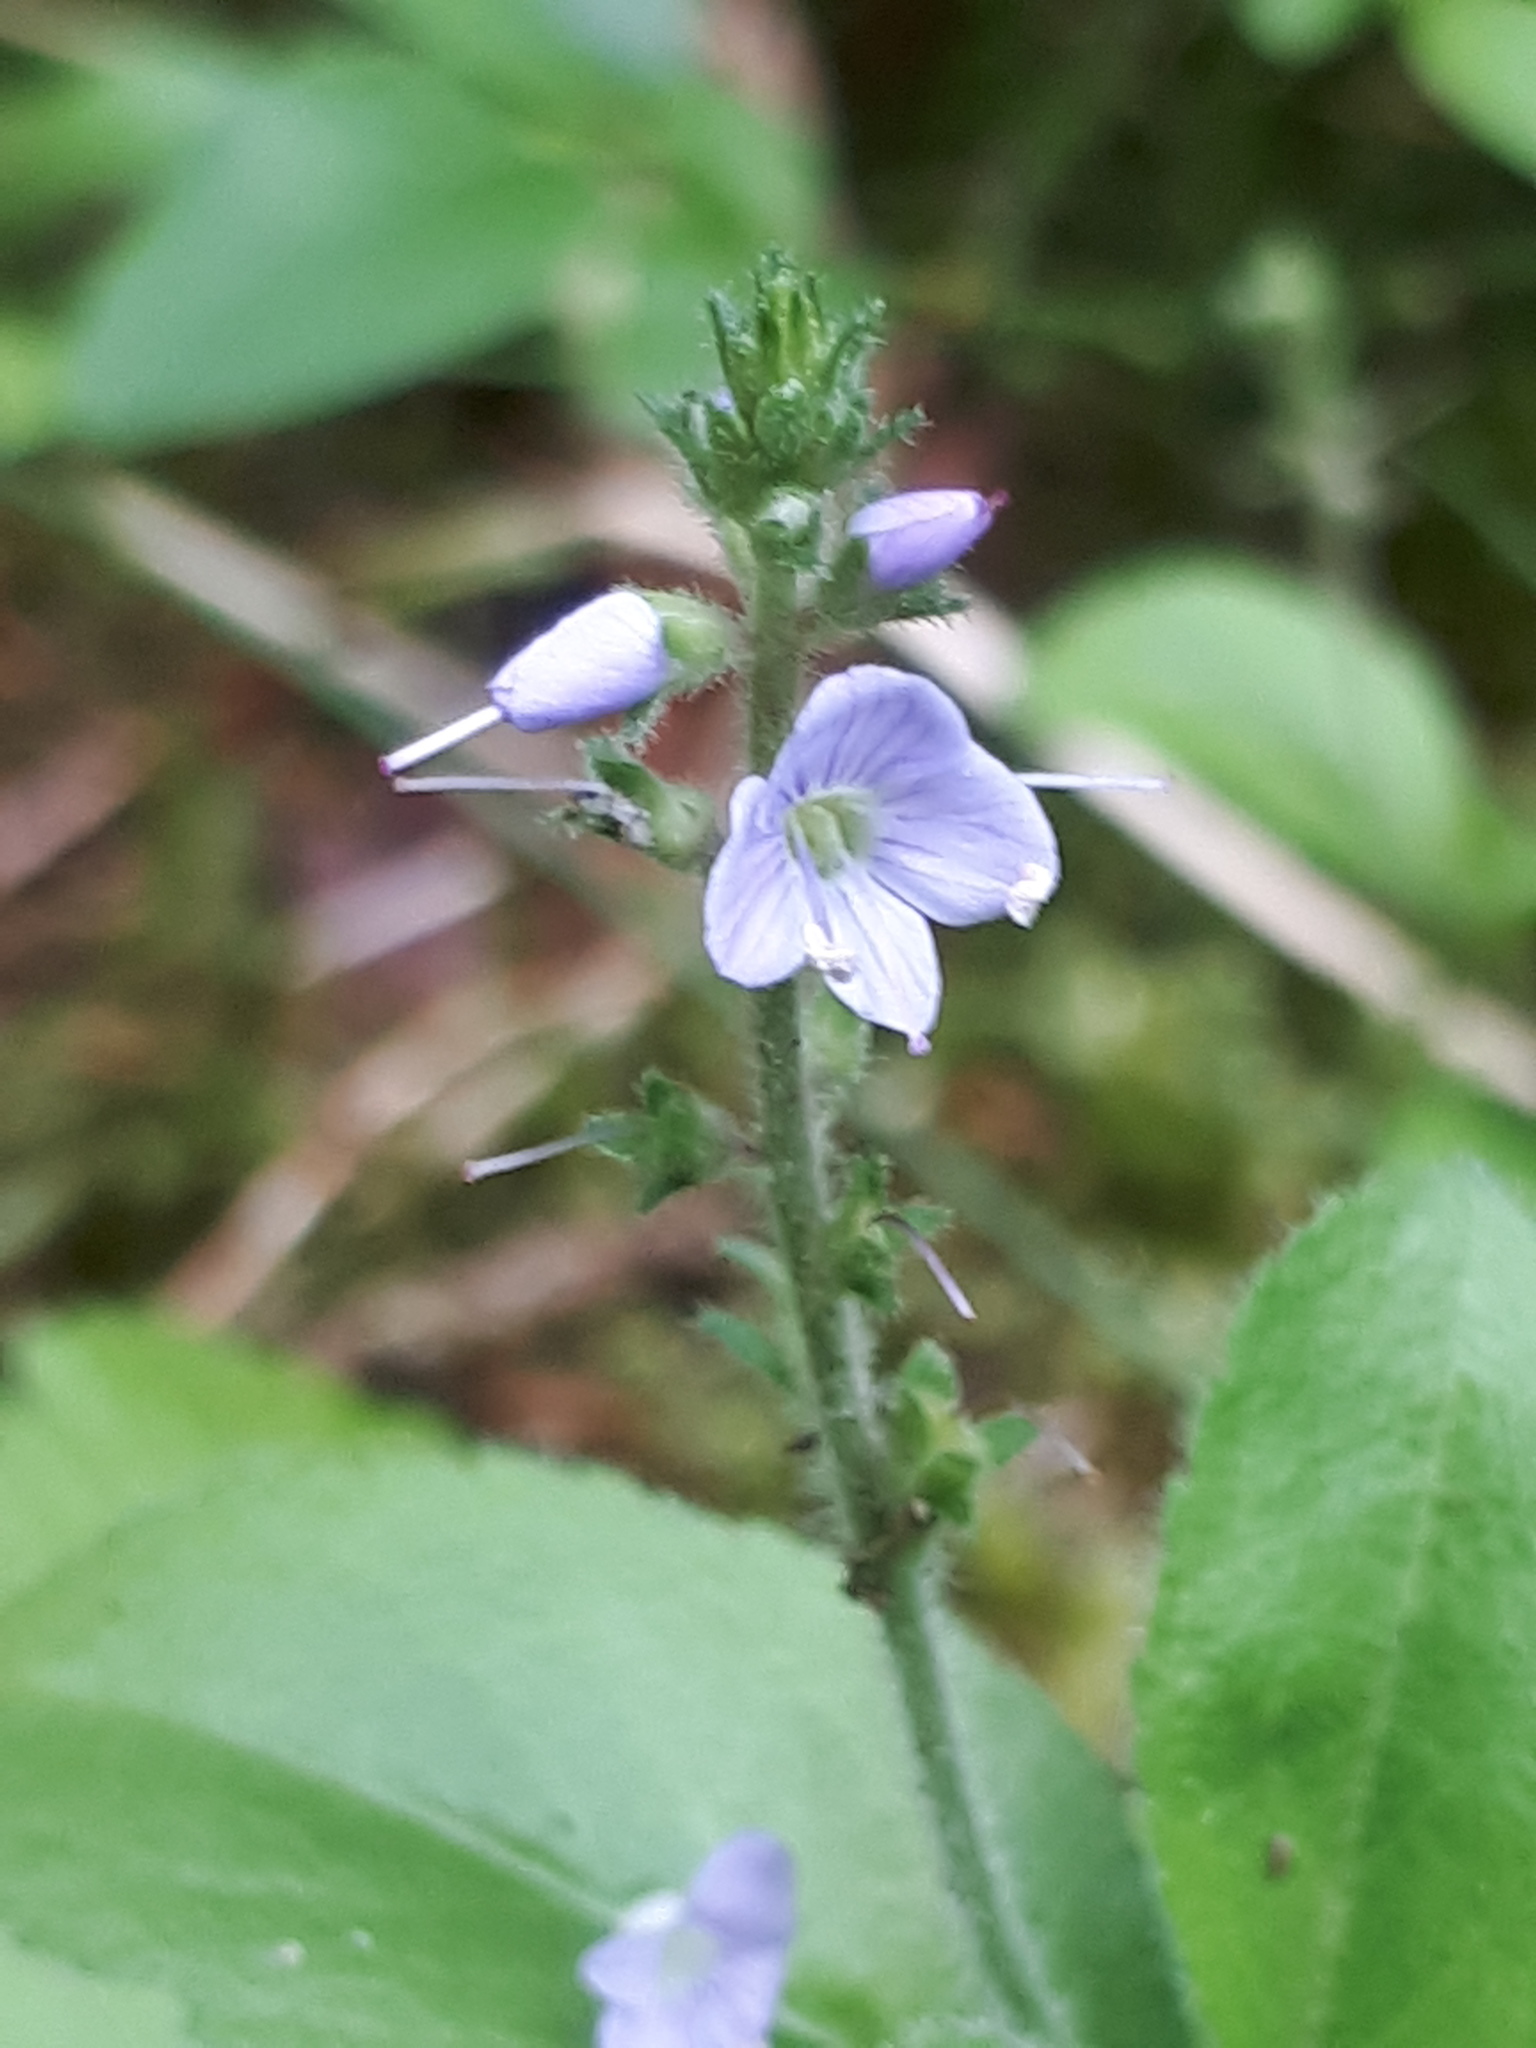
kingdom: Plantae
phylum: Tracheophyta
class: Magnoliopsida
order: Lamiales
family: Plantaginaceae
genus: Veronica
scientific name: Veronica officinalis
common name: Common speedwell
